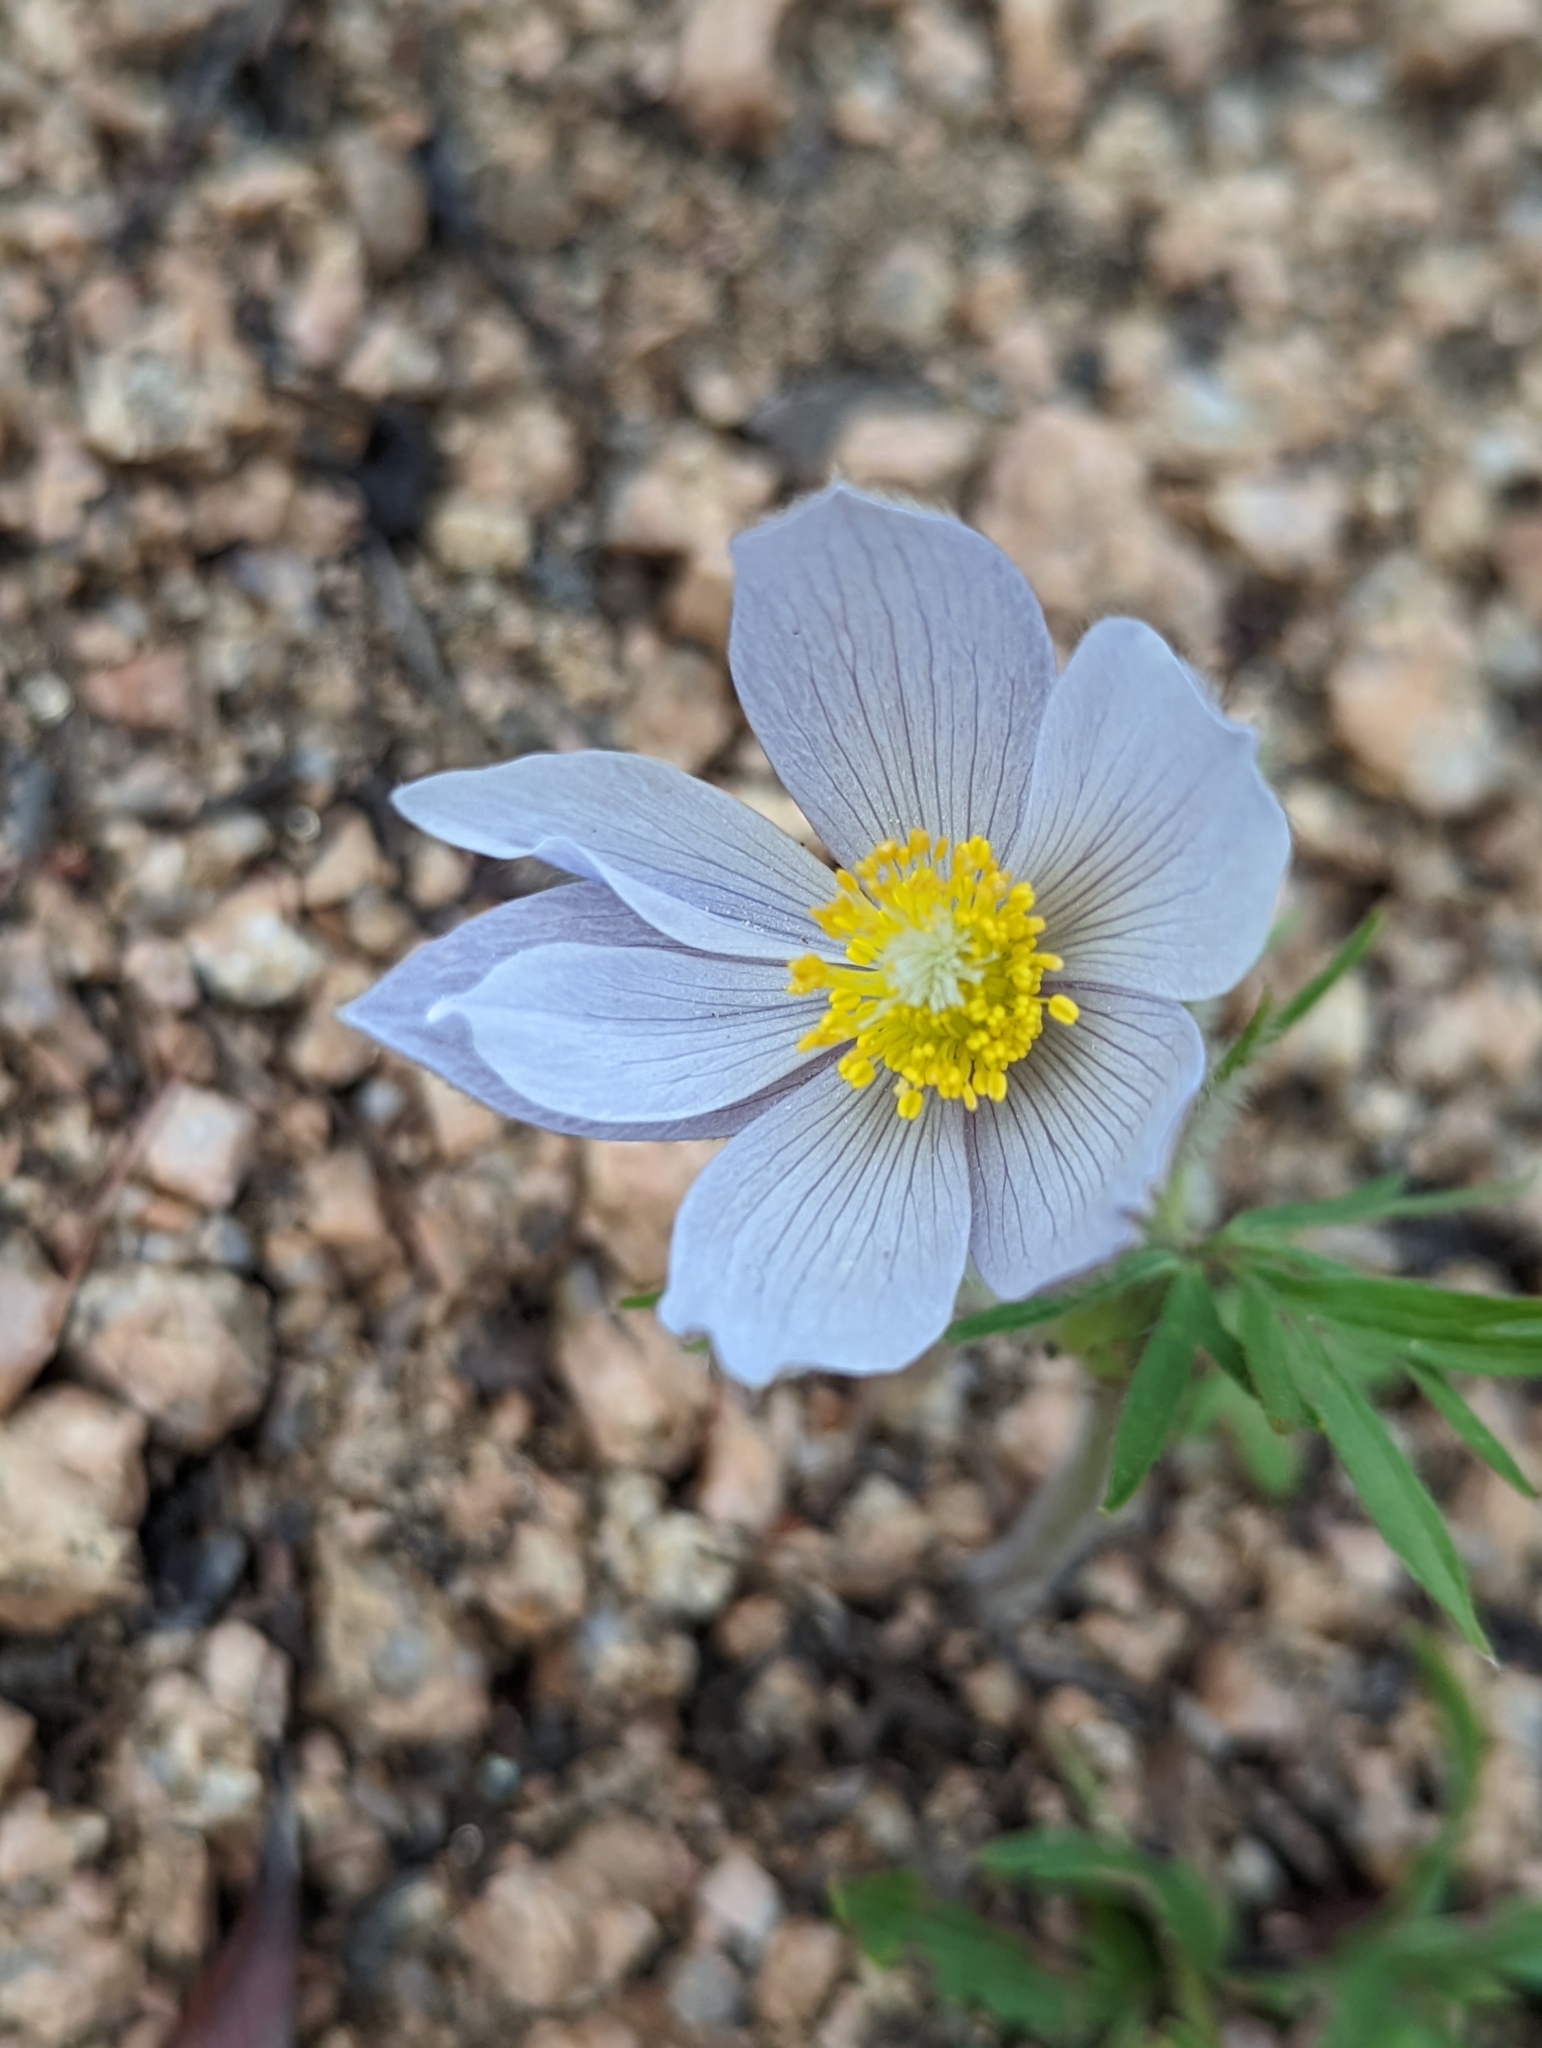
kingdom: Plantae
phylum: Tracheophyta
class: Magnoliopsida
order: Ranunculales
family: Ranunculaceae
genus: Pulsatilla
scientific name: Pulsatilla nuttalliana
